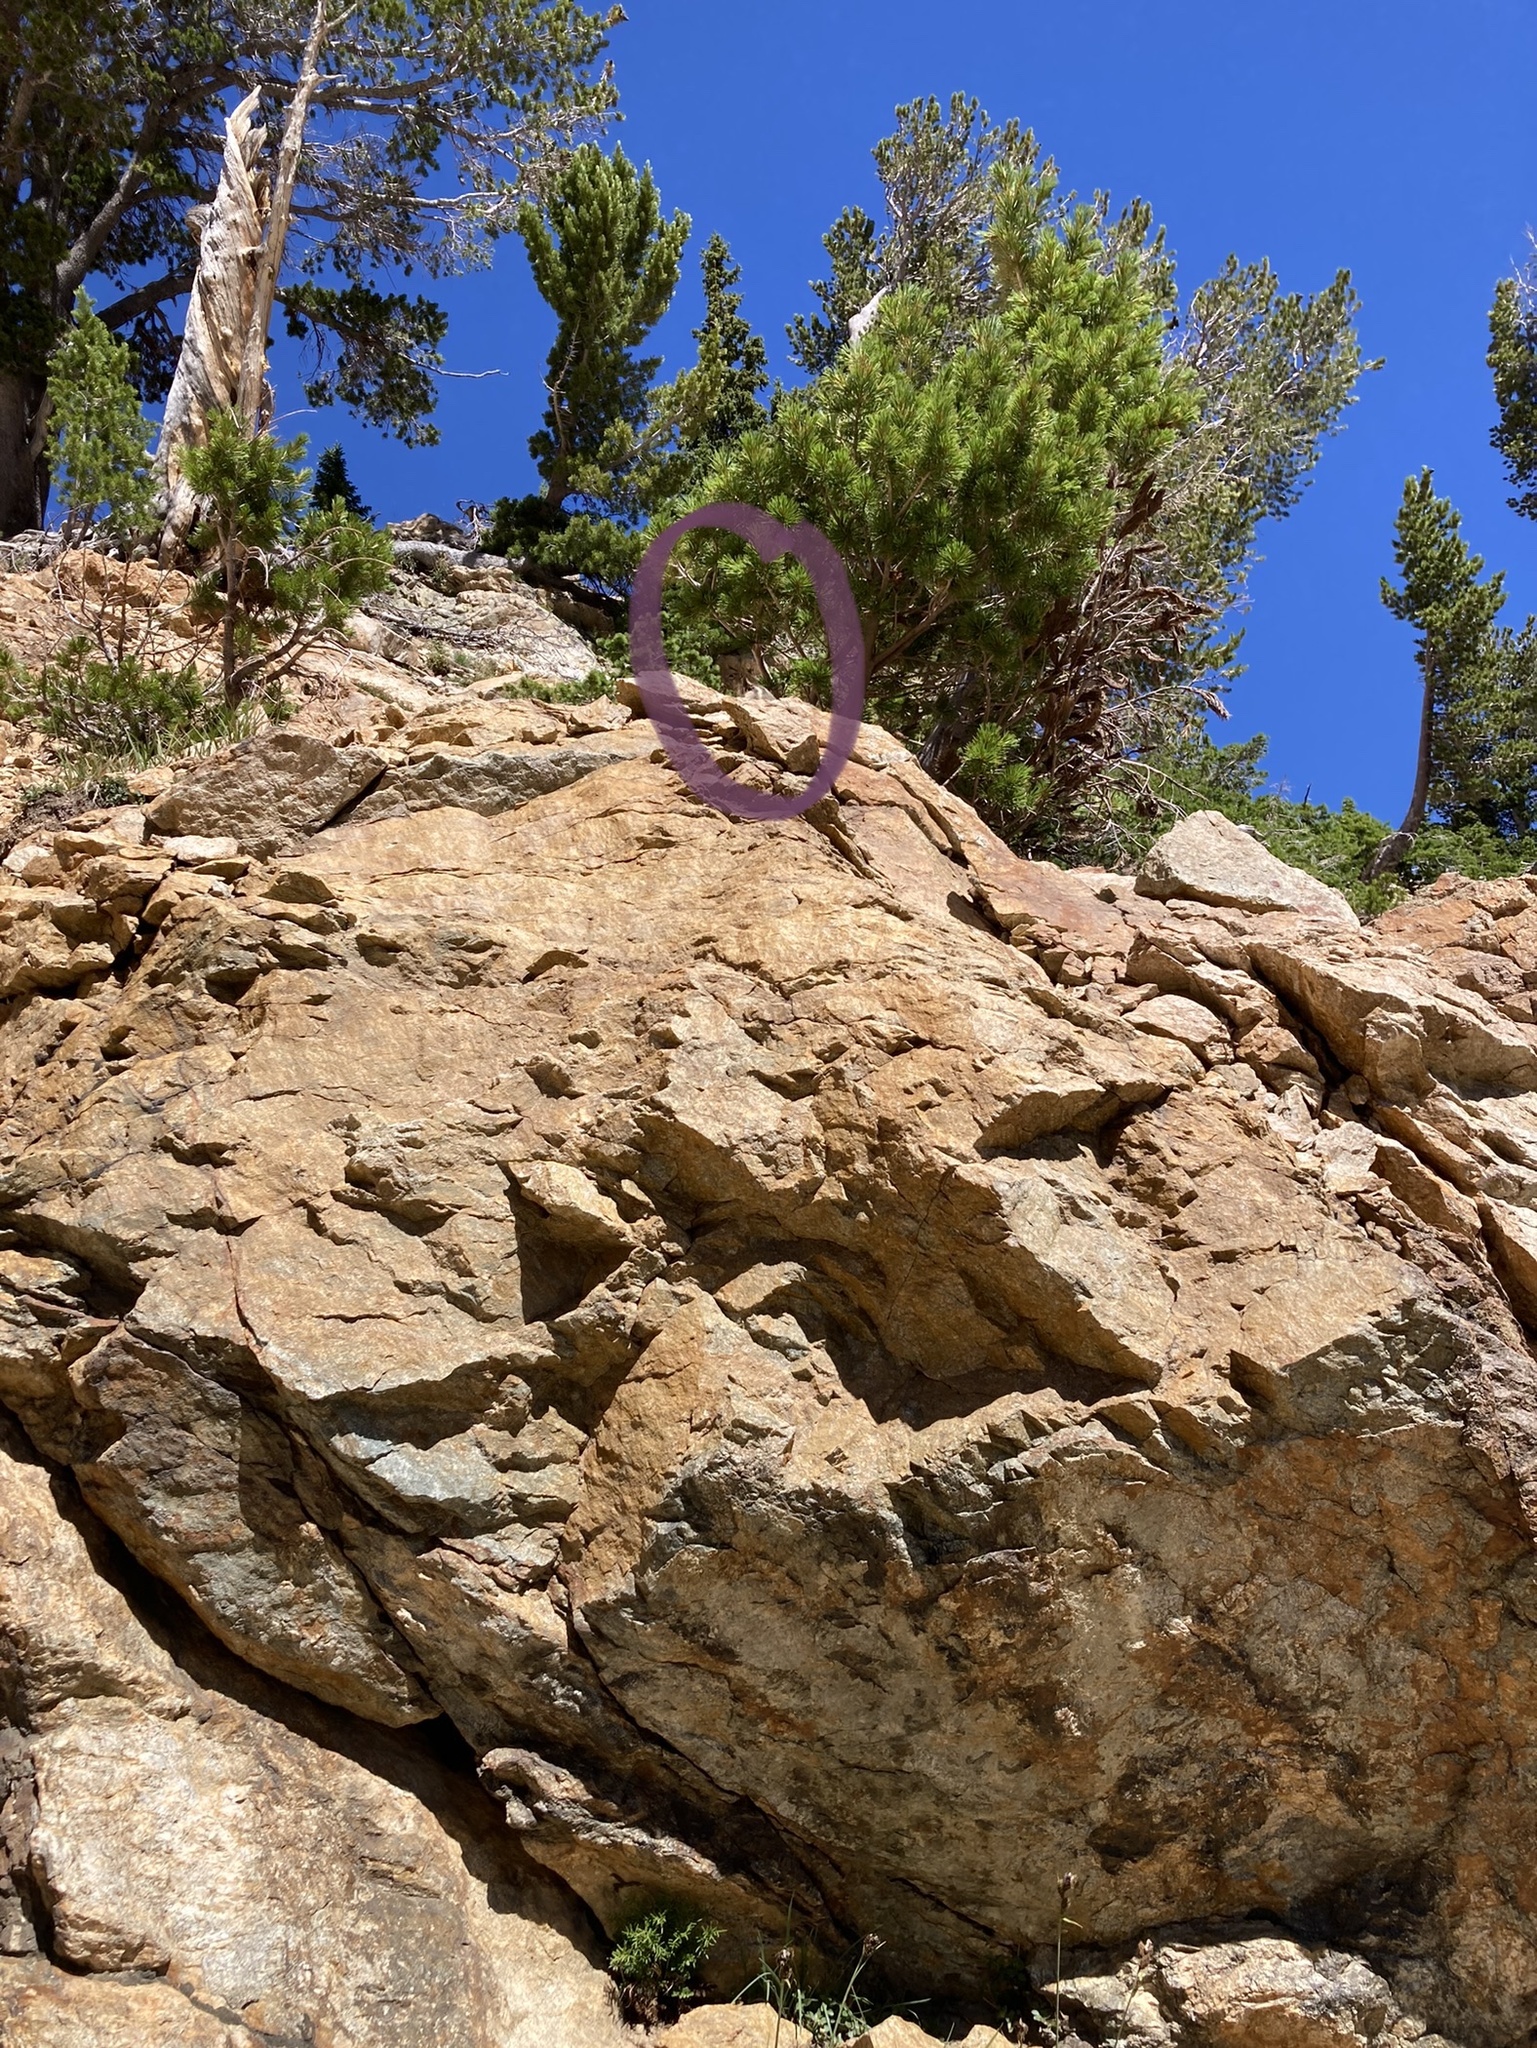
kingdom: Animalia
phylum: Chordata
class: Mammalia
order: Rodentia
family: Sciuridae
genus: Callospermophilus
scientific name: Callospermophilus lateralis
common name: Golden-mantled ground squirrel
